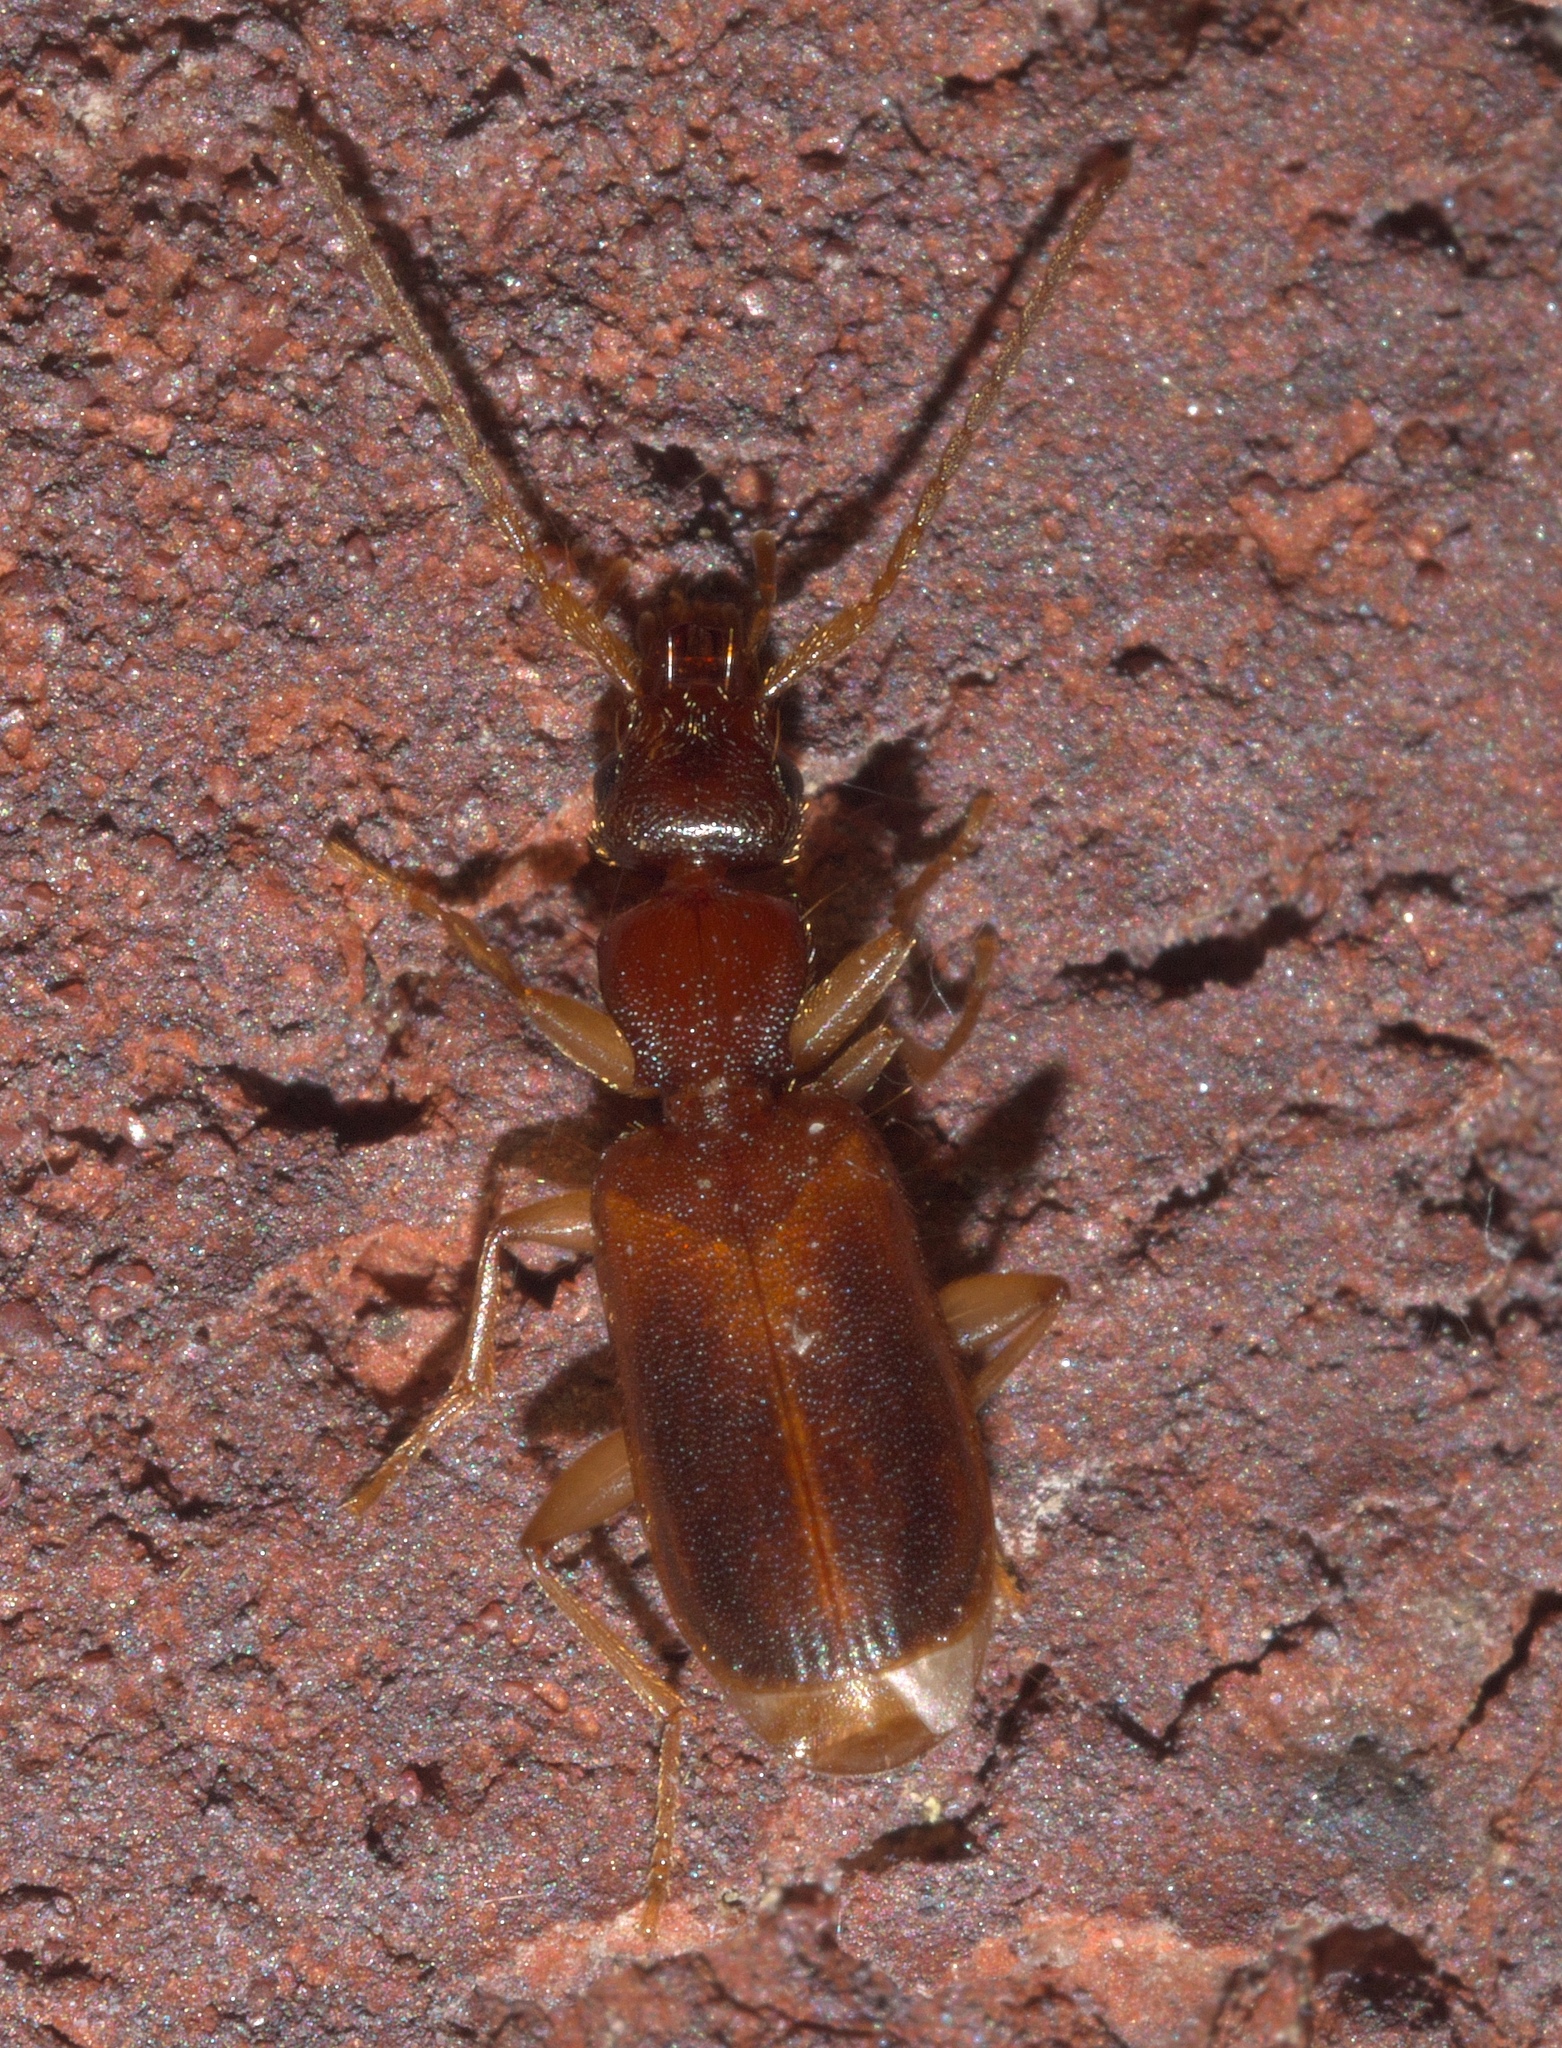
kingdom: Animalia
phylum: Arthropoda
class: Insecta
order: Coleoptera
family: Carabidae
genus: Zuphioides
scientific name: Zuphioides americanum
